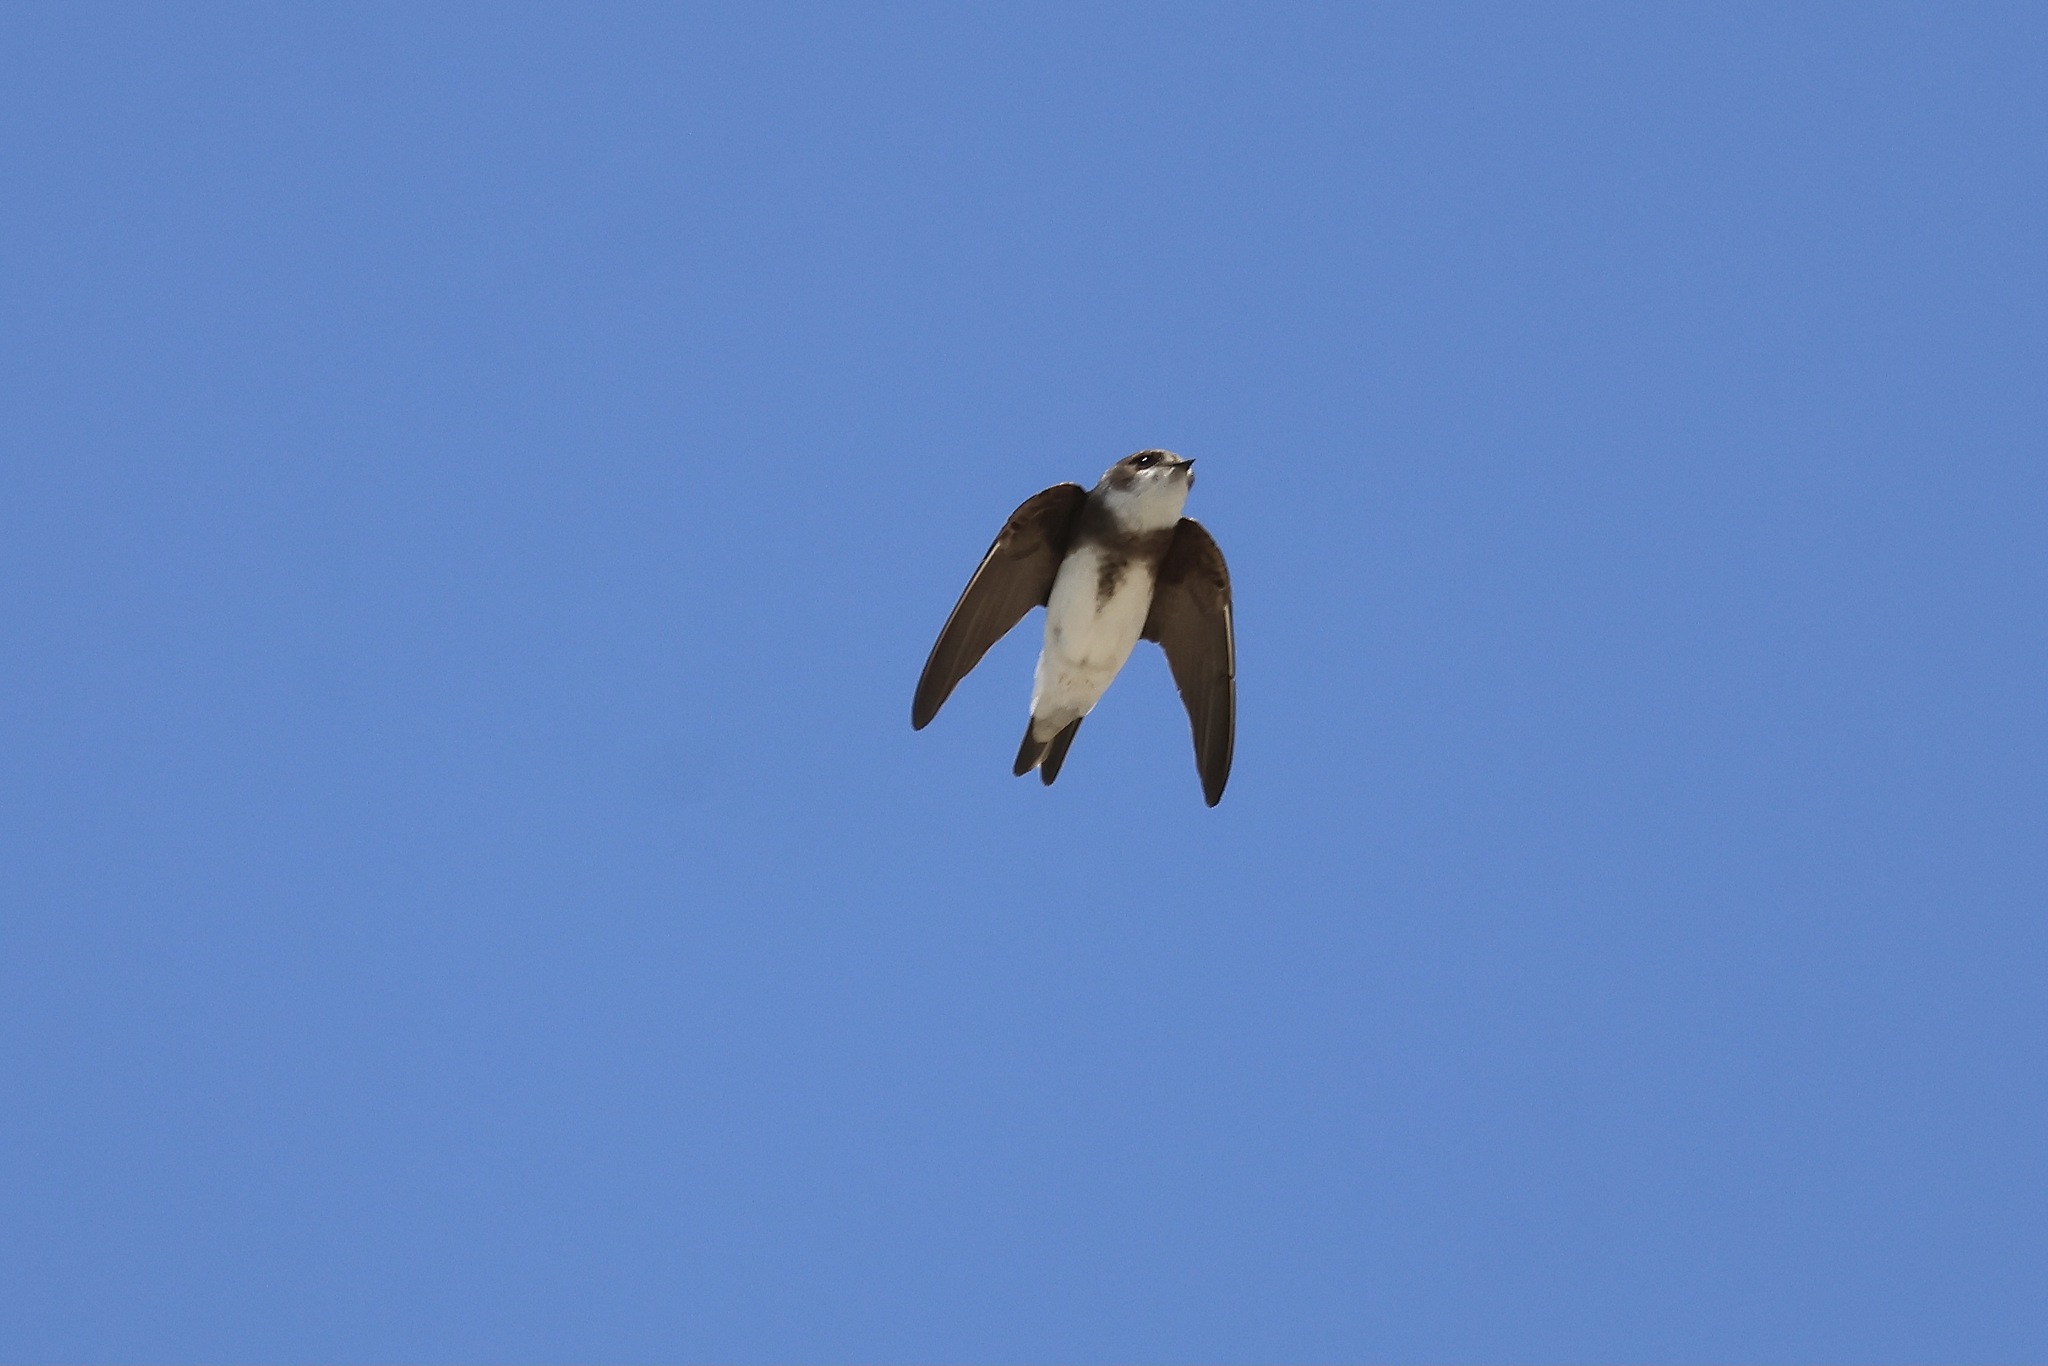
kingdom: Animalia
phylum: Chordata
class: Aves
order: Passeriformes
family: Hirundinidae
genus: Riparia
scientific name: Riparia riparia
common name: Sand martin
